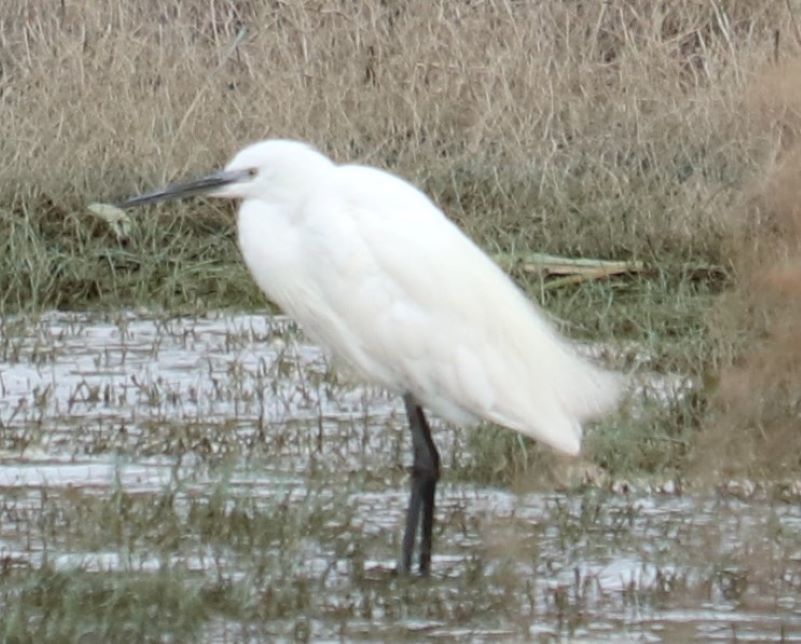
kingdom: Animalia
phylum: Chordata
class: Aves
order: Pelecaniformes
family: Ardeidae
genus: Egretta
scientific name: Egretta garzetta
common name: Little egret
